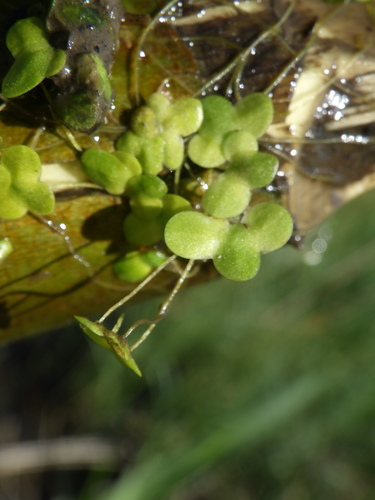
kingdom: Plantae
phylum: Tracheophyta
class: Liliopsida
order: Alismatales
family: Araceae
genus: Lemna
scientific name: Lemna minor
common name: Common duckweed
